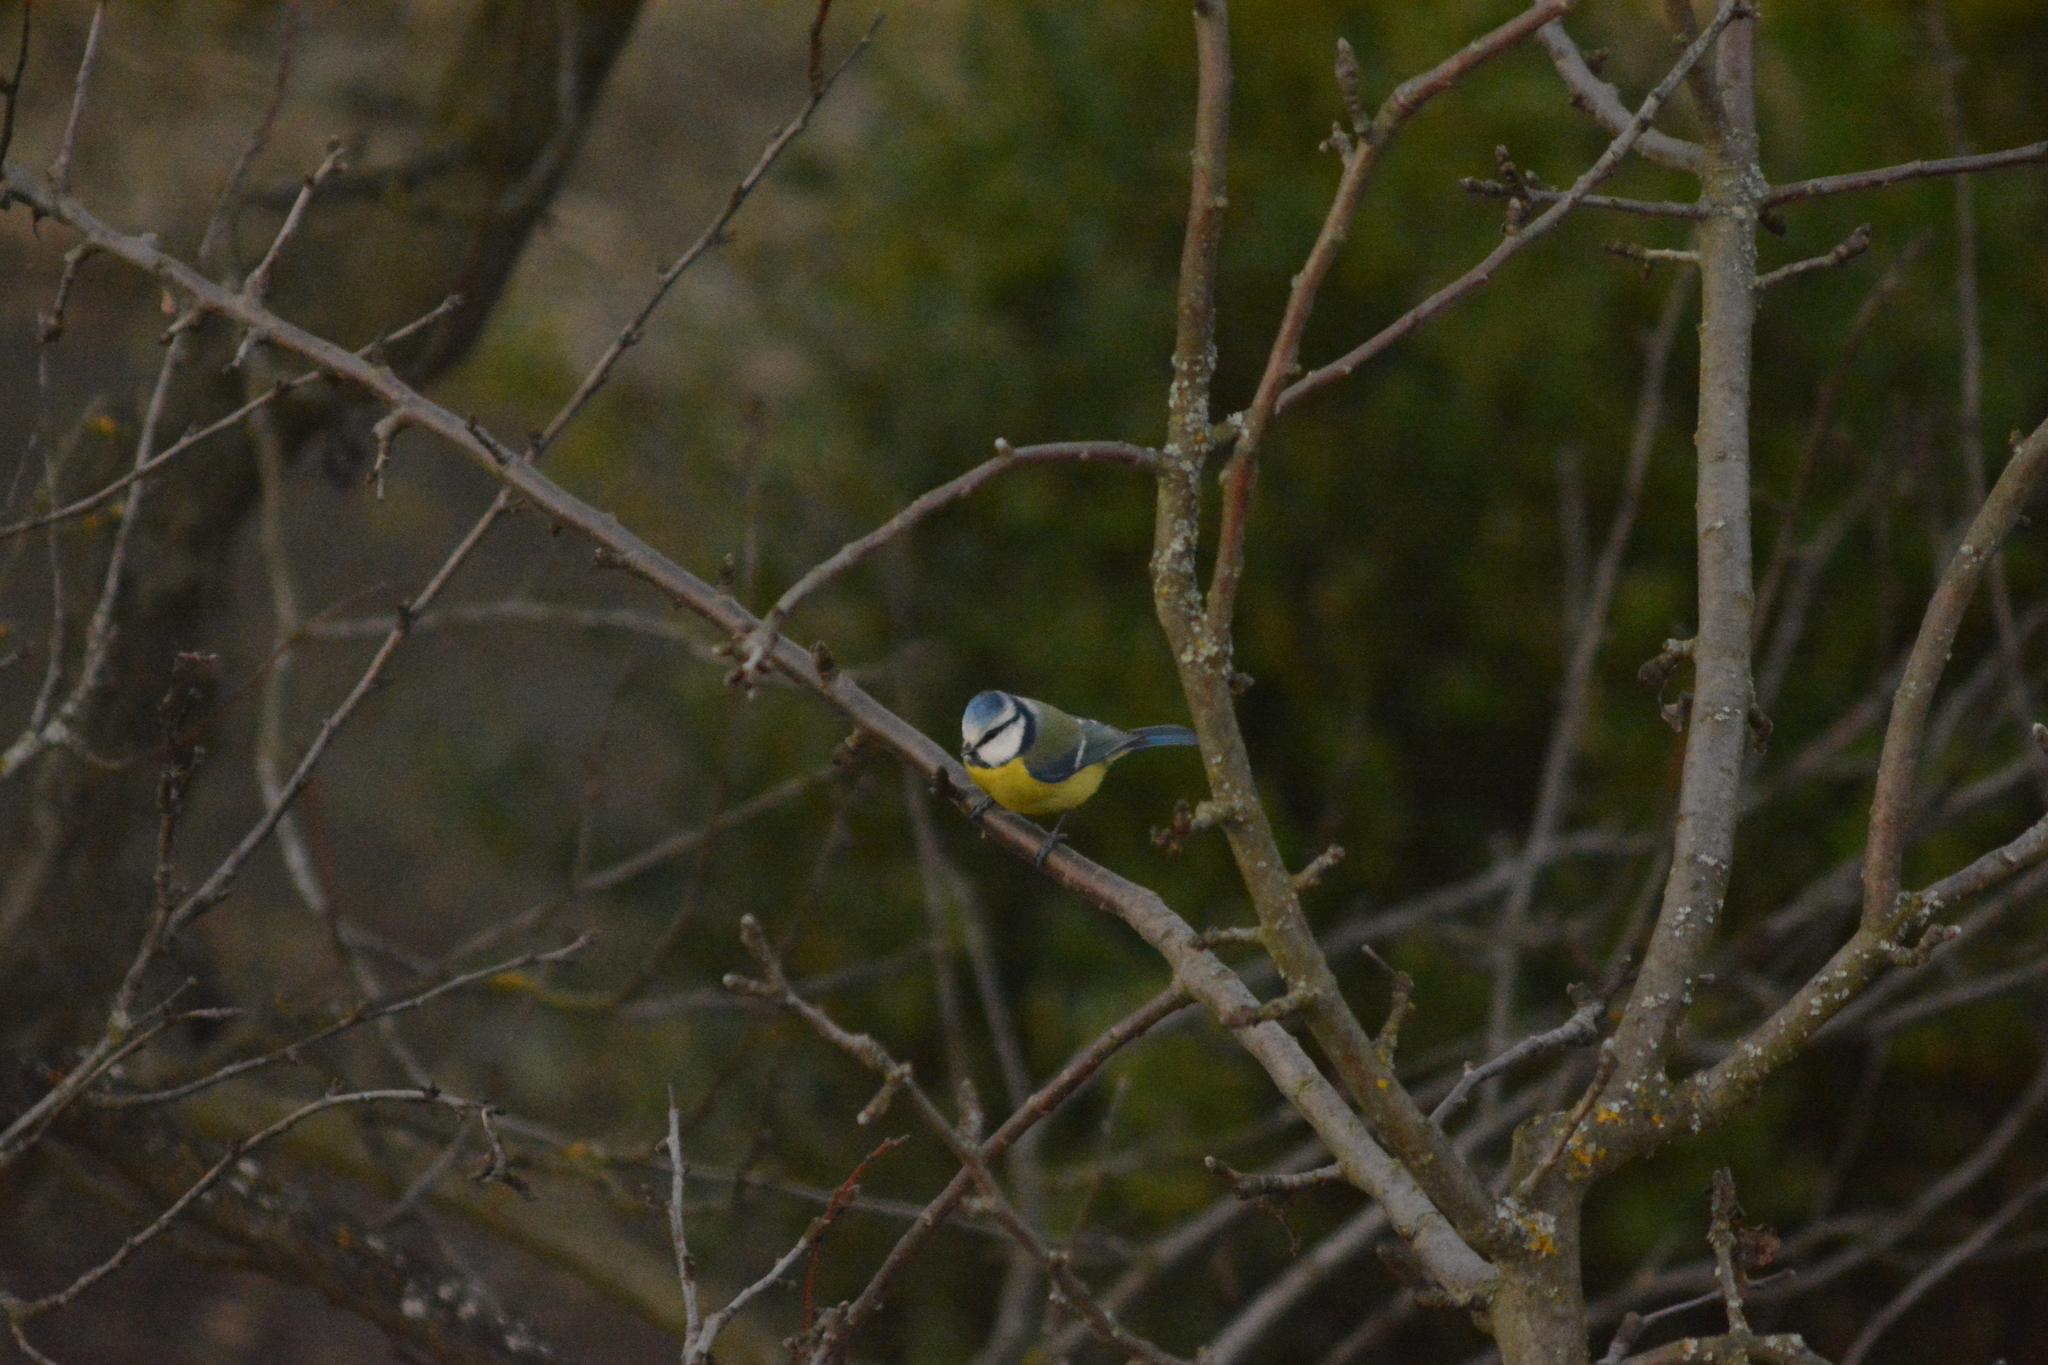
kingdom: Animalia
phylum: Chordata
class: Aves
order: Passeriformes
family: Paridae
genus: Cyanistes
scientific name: Cyanistes caeruleus
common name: Eurasian blue tit
